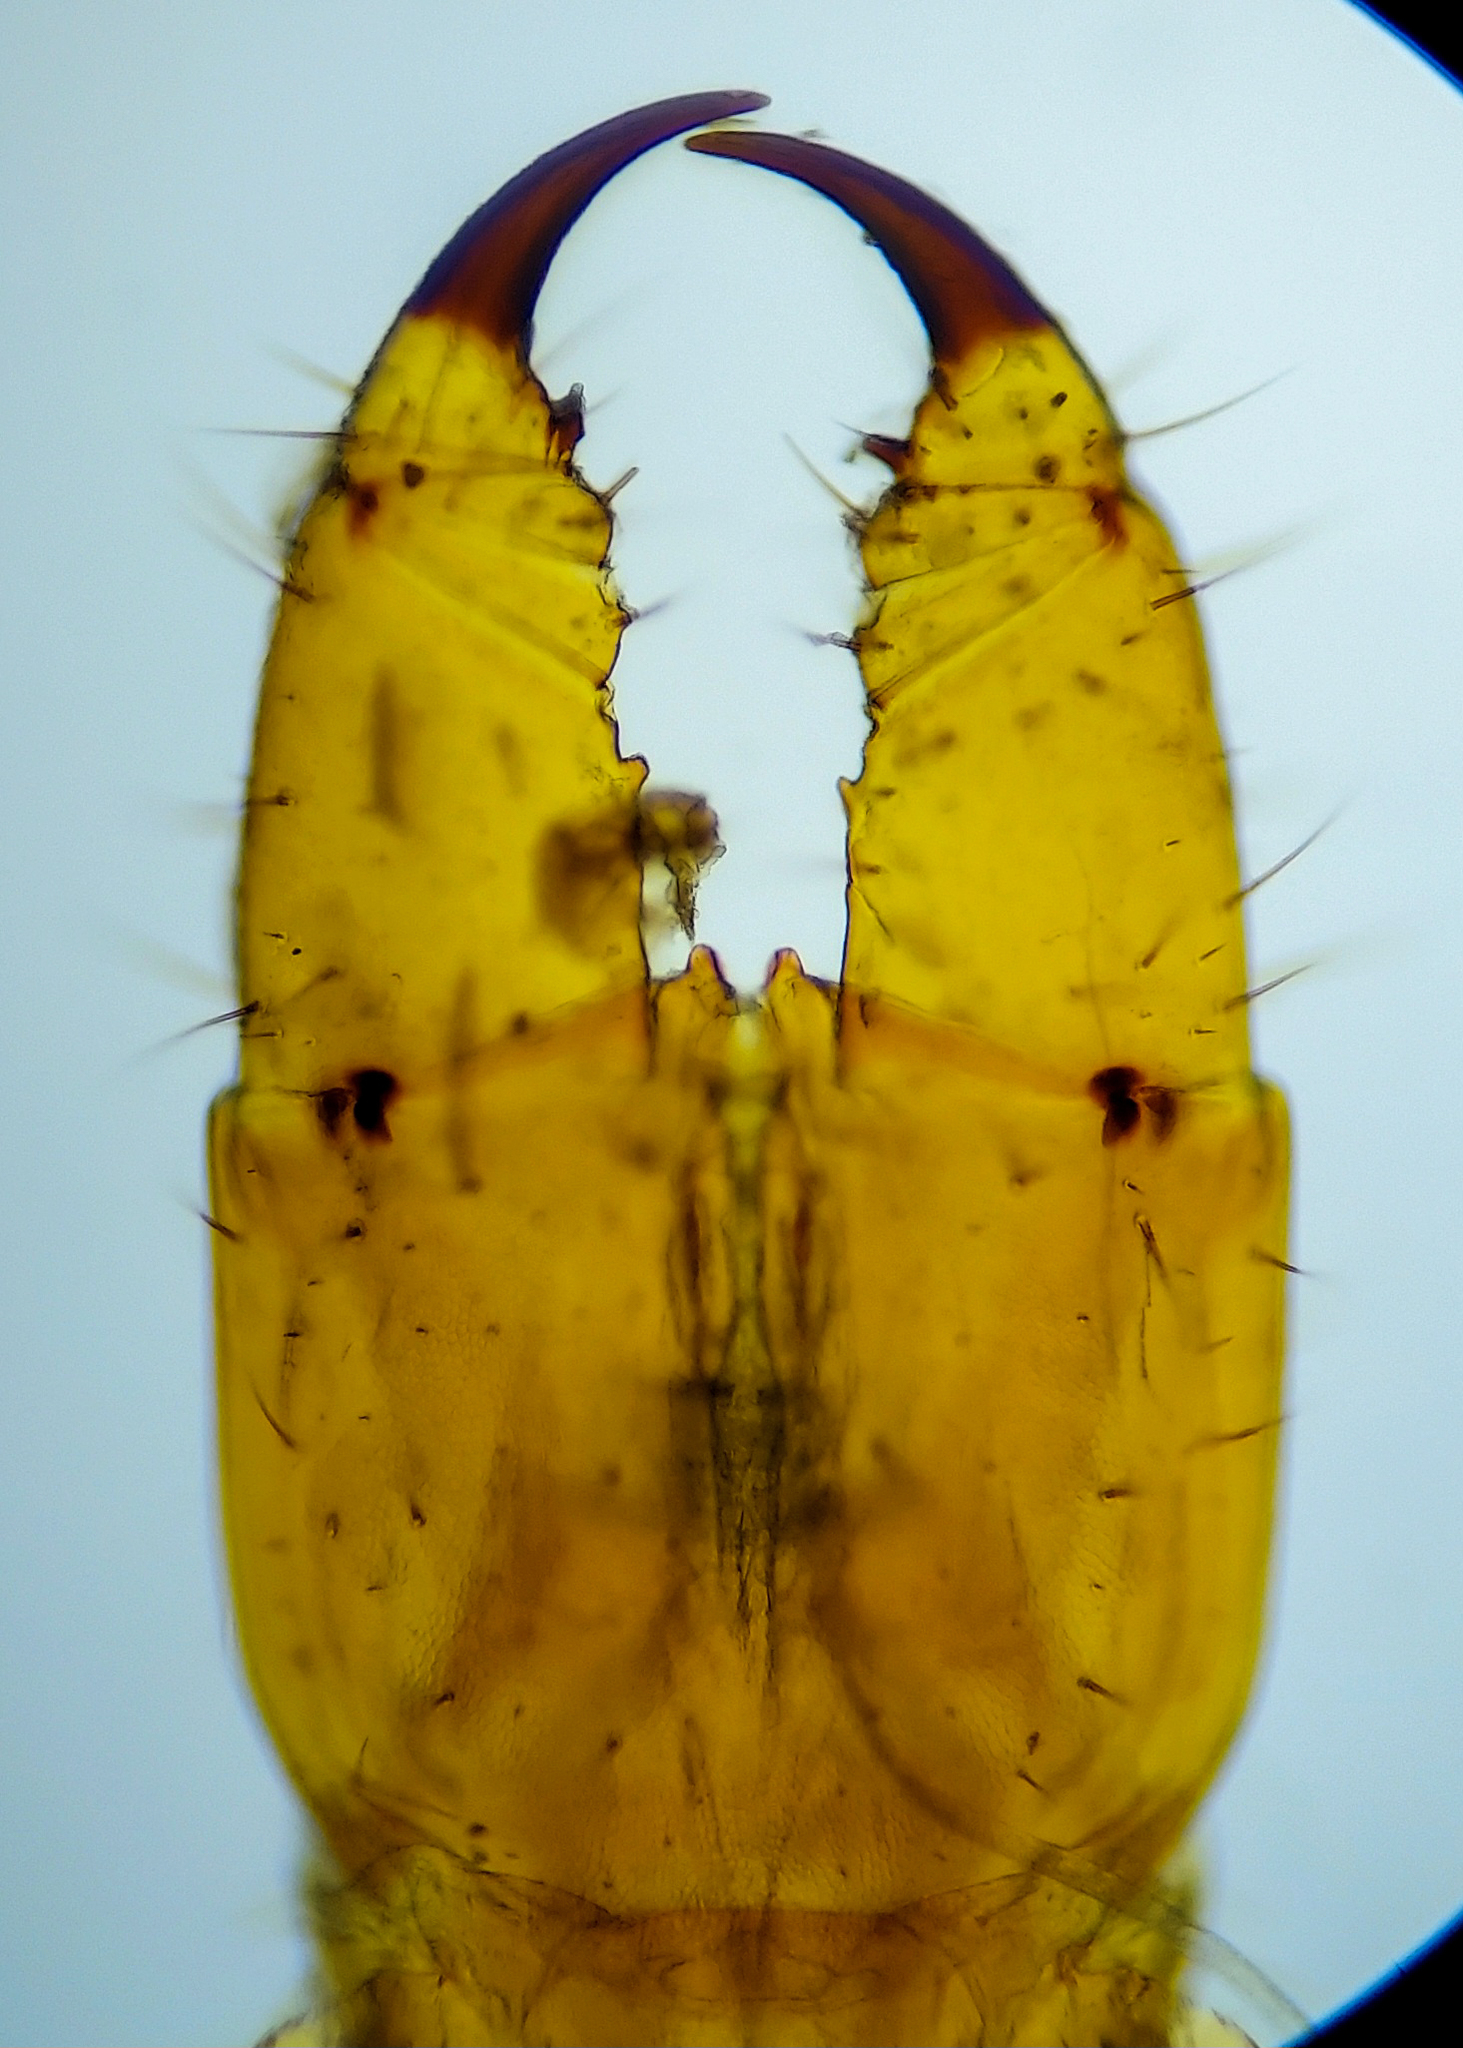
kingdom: Animalia
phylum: Arthropoda
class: Chilopoda
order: Geophilomorpha
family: Geophilidae
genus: Pachymerium
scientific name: Pachymerium ferrugineum
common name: Centipede
